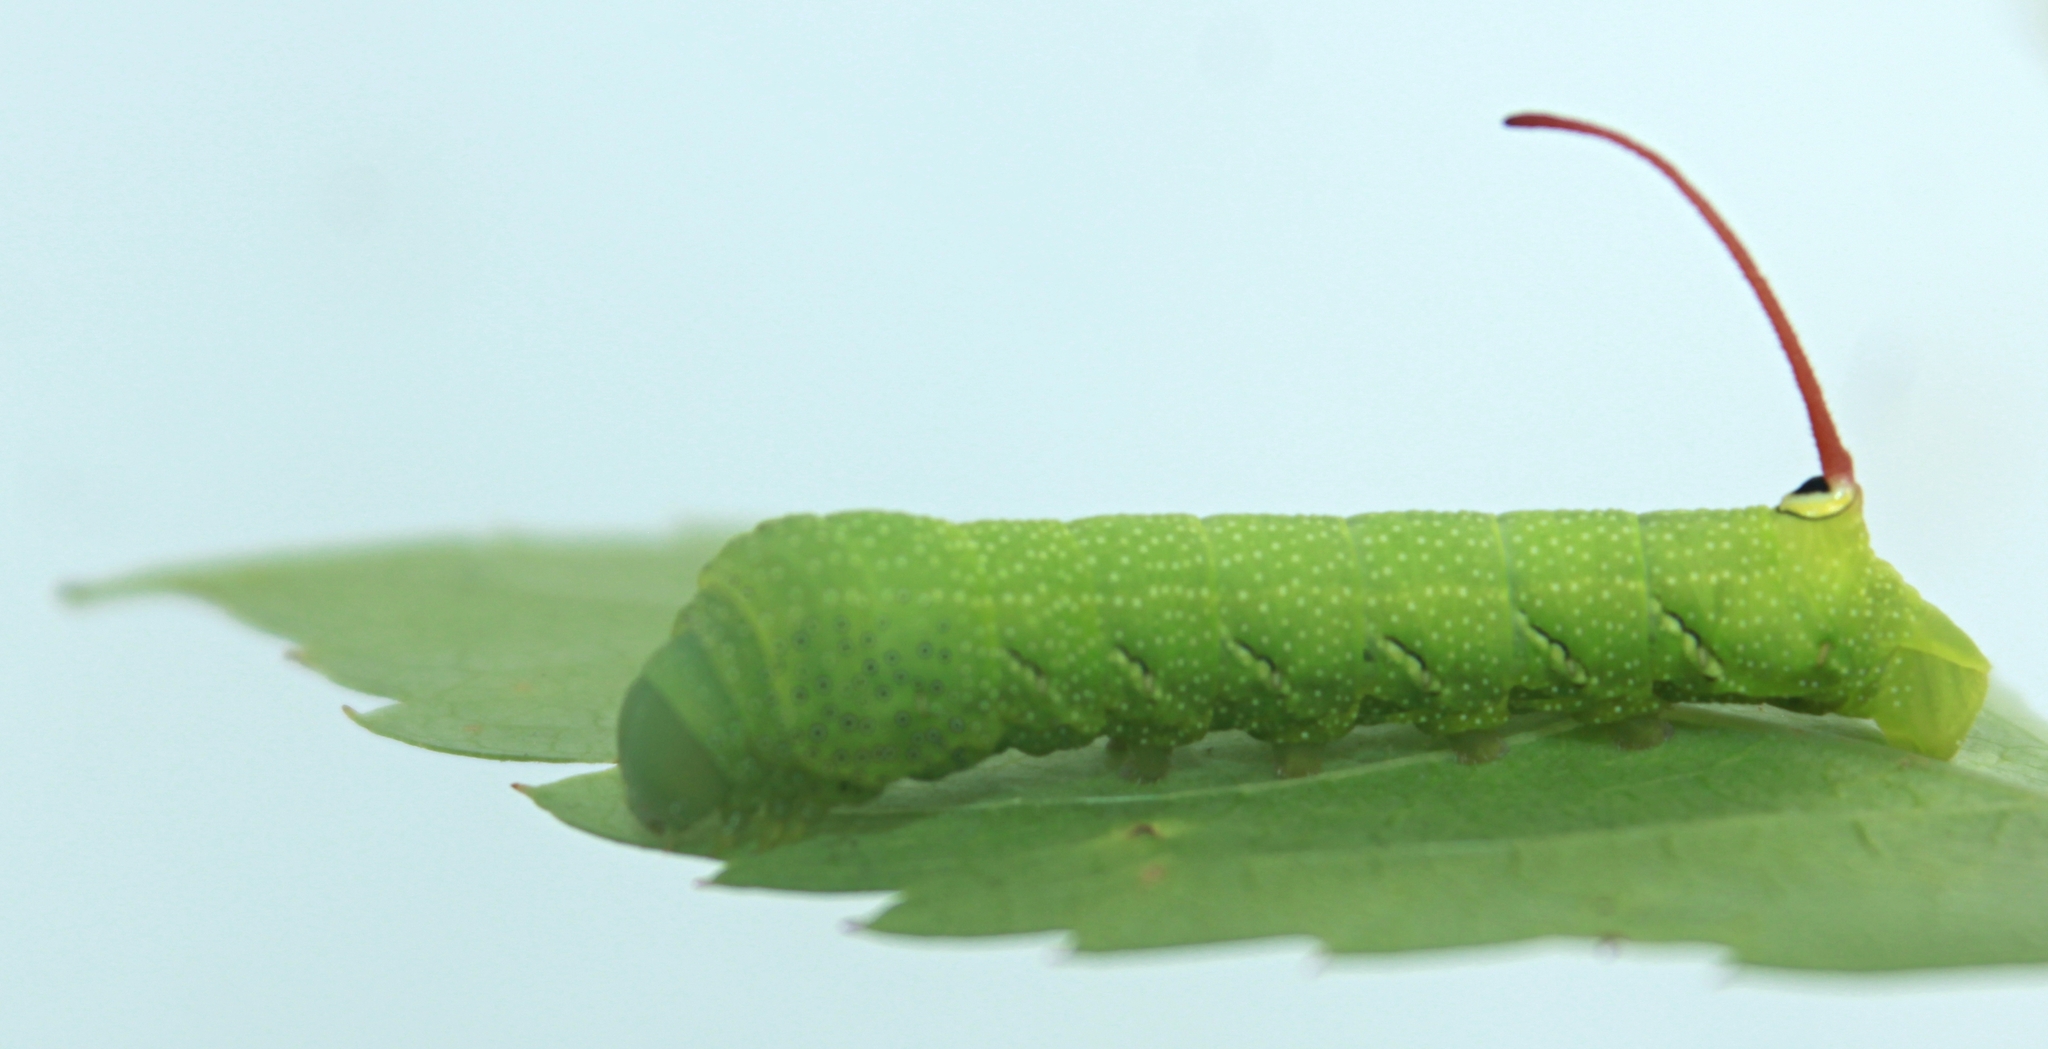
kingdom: Animalia
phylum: Arthropoda
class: Insecta
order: Lepidoptera
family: Sphingidae
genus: Eumorpha
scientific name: Eumorpha achemon
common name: Achemon sphinx
